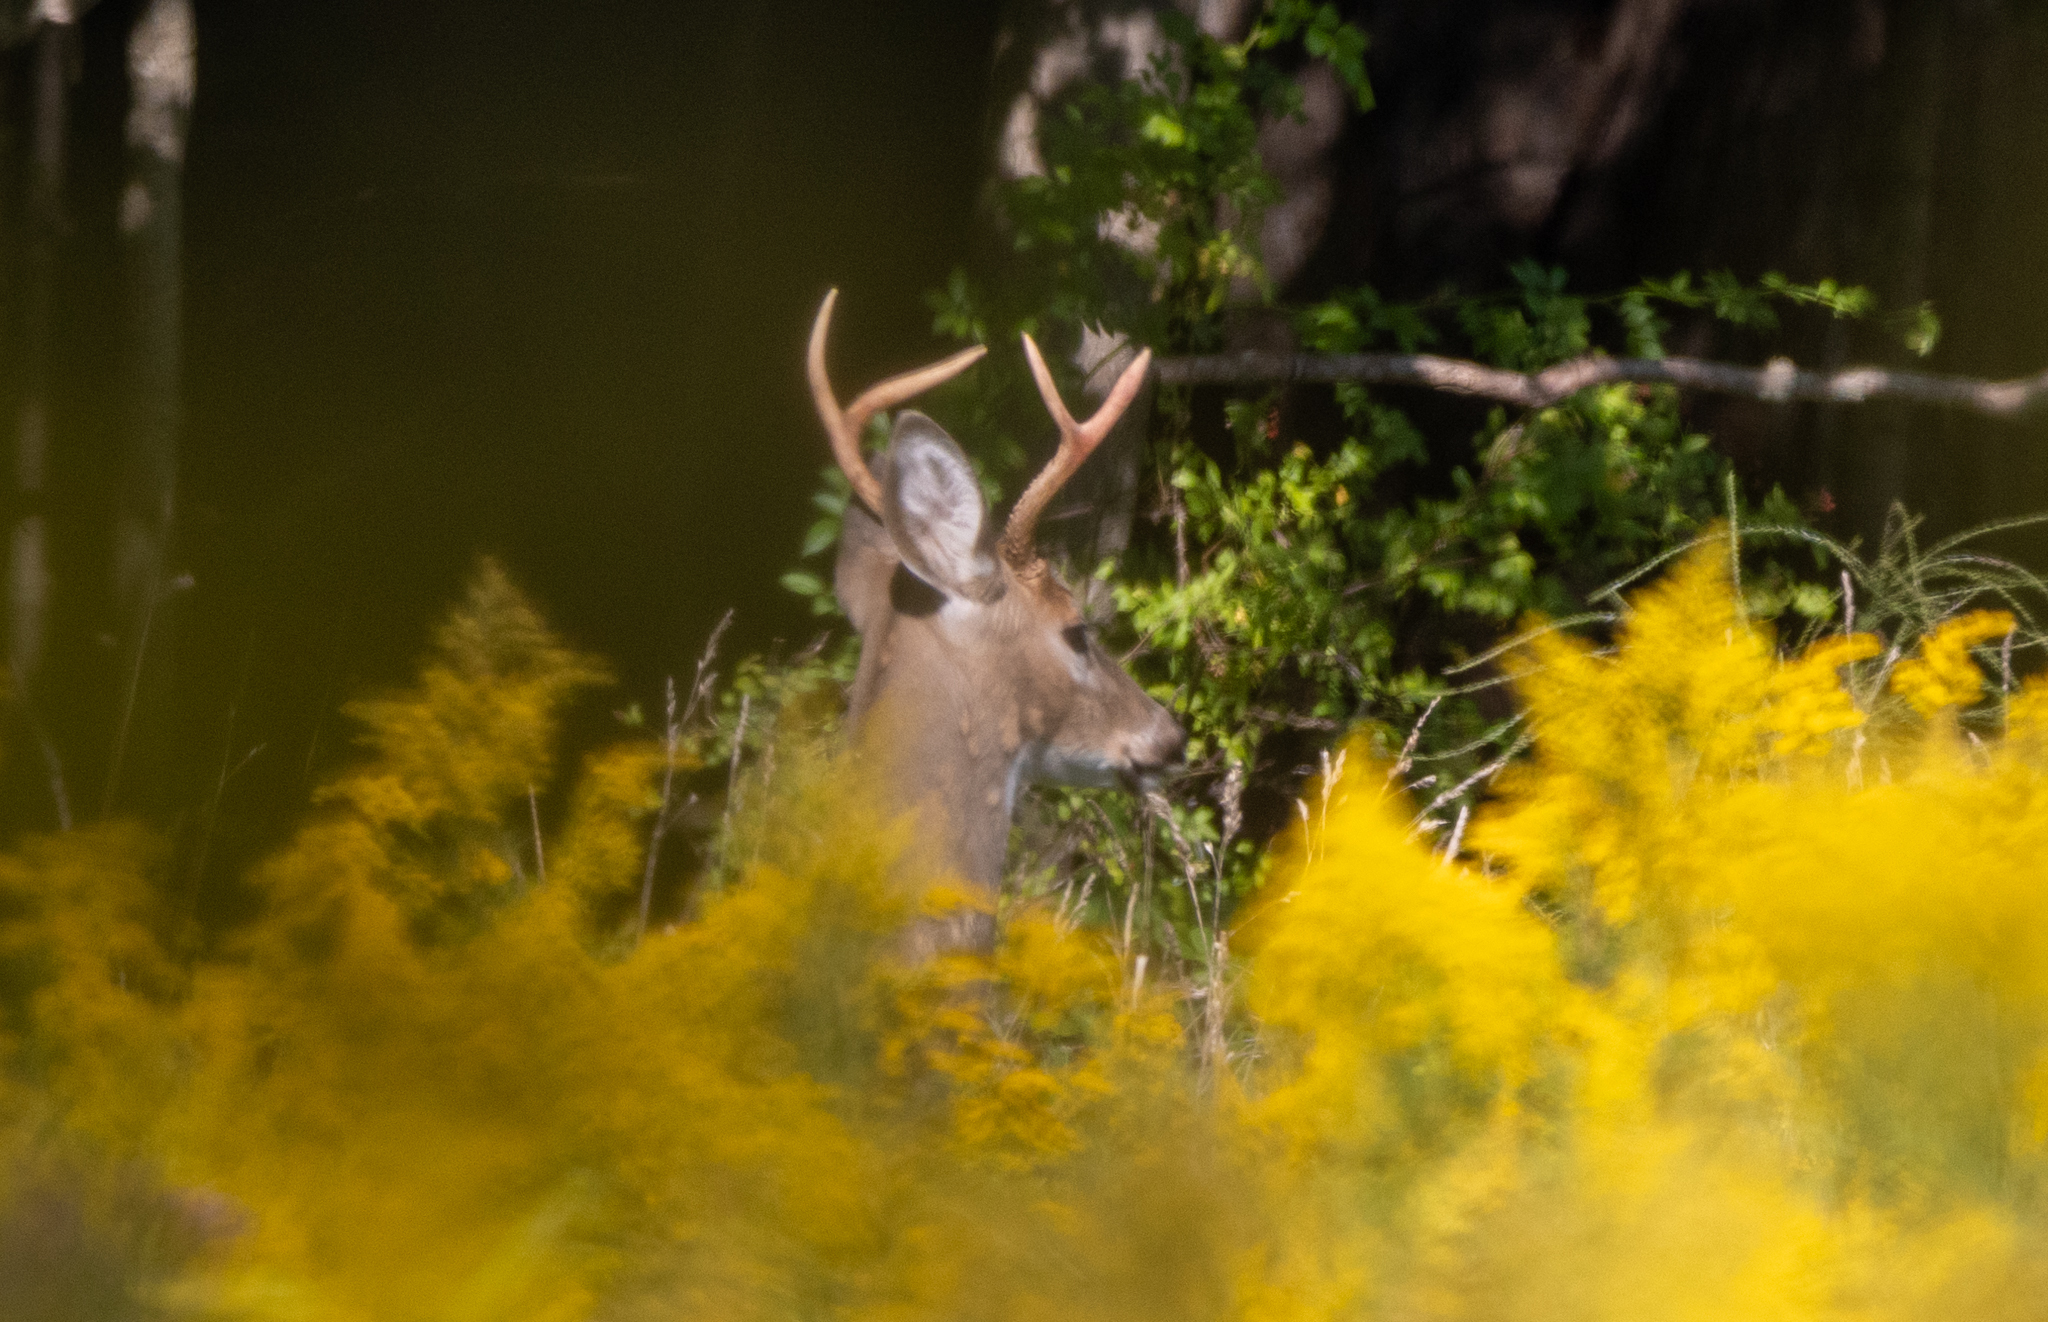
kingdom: Animalia
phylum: Chordata
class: Mammalia
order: Artiodactyla
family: Cervidae
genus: Odocoileus
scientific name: Odocoileus virginianus
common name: White-tailed deer
